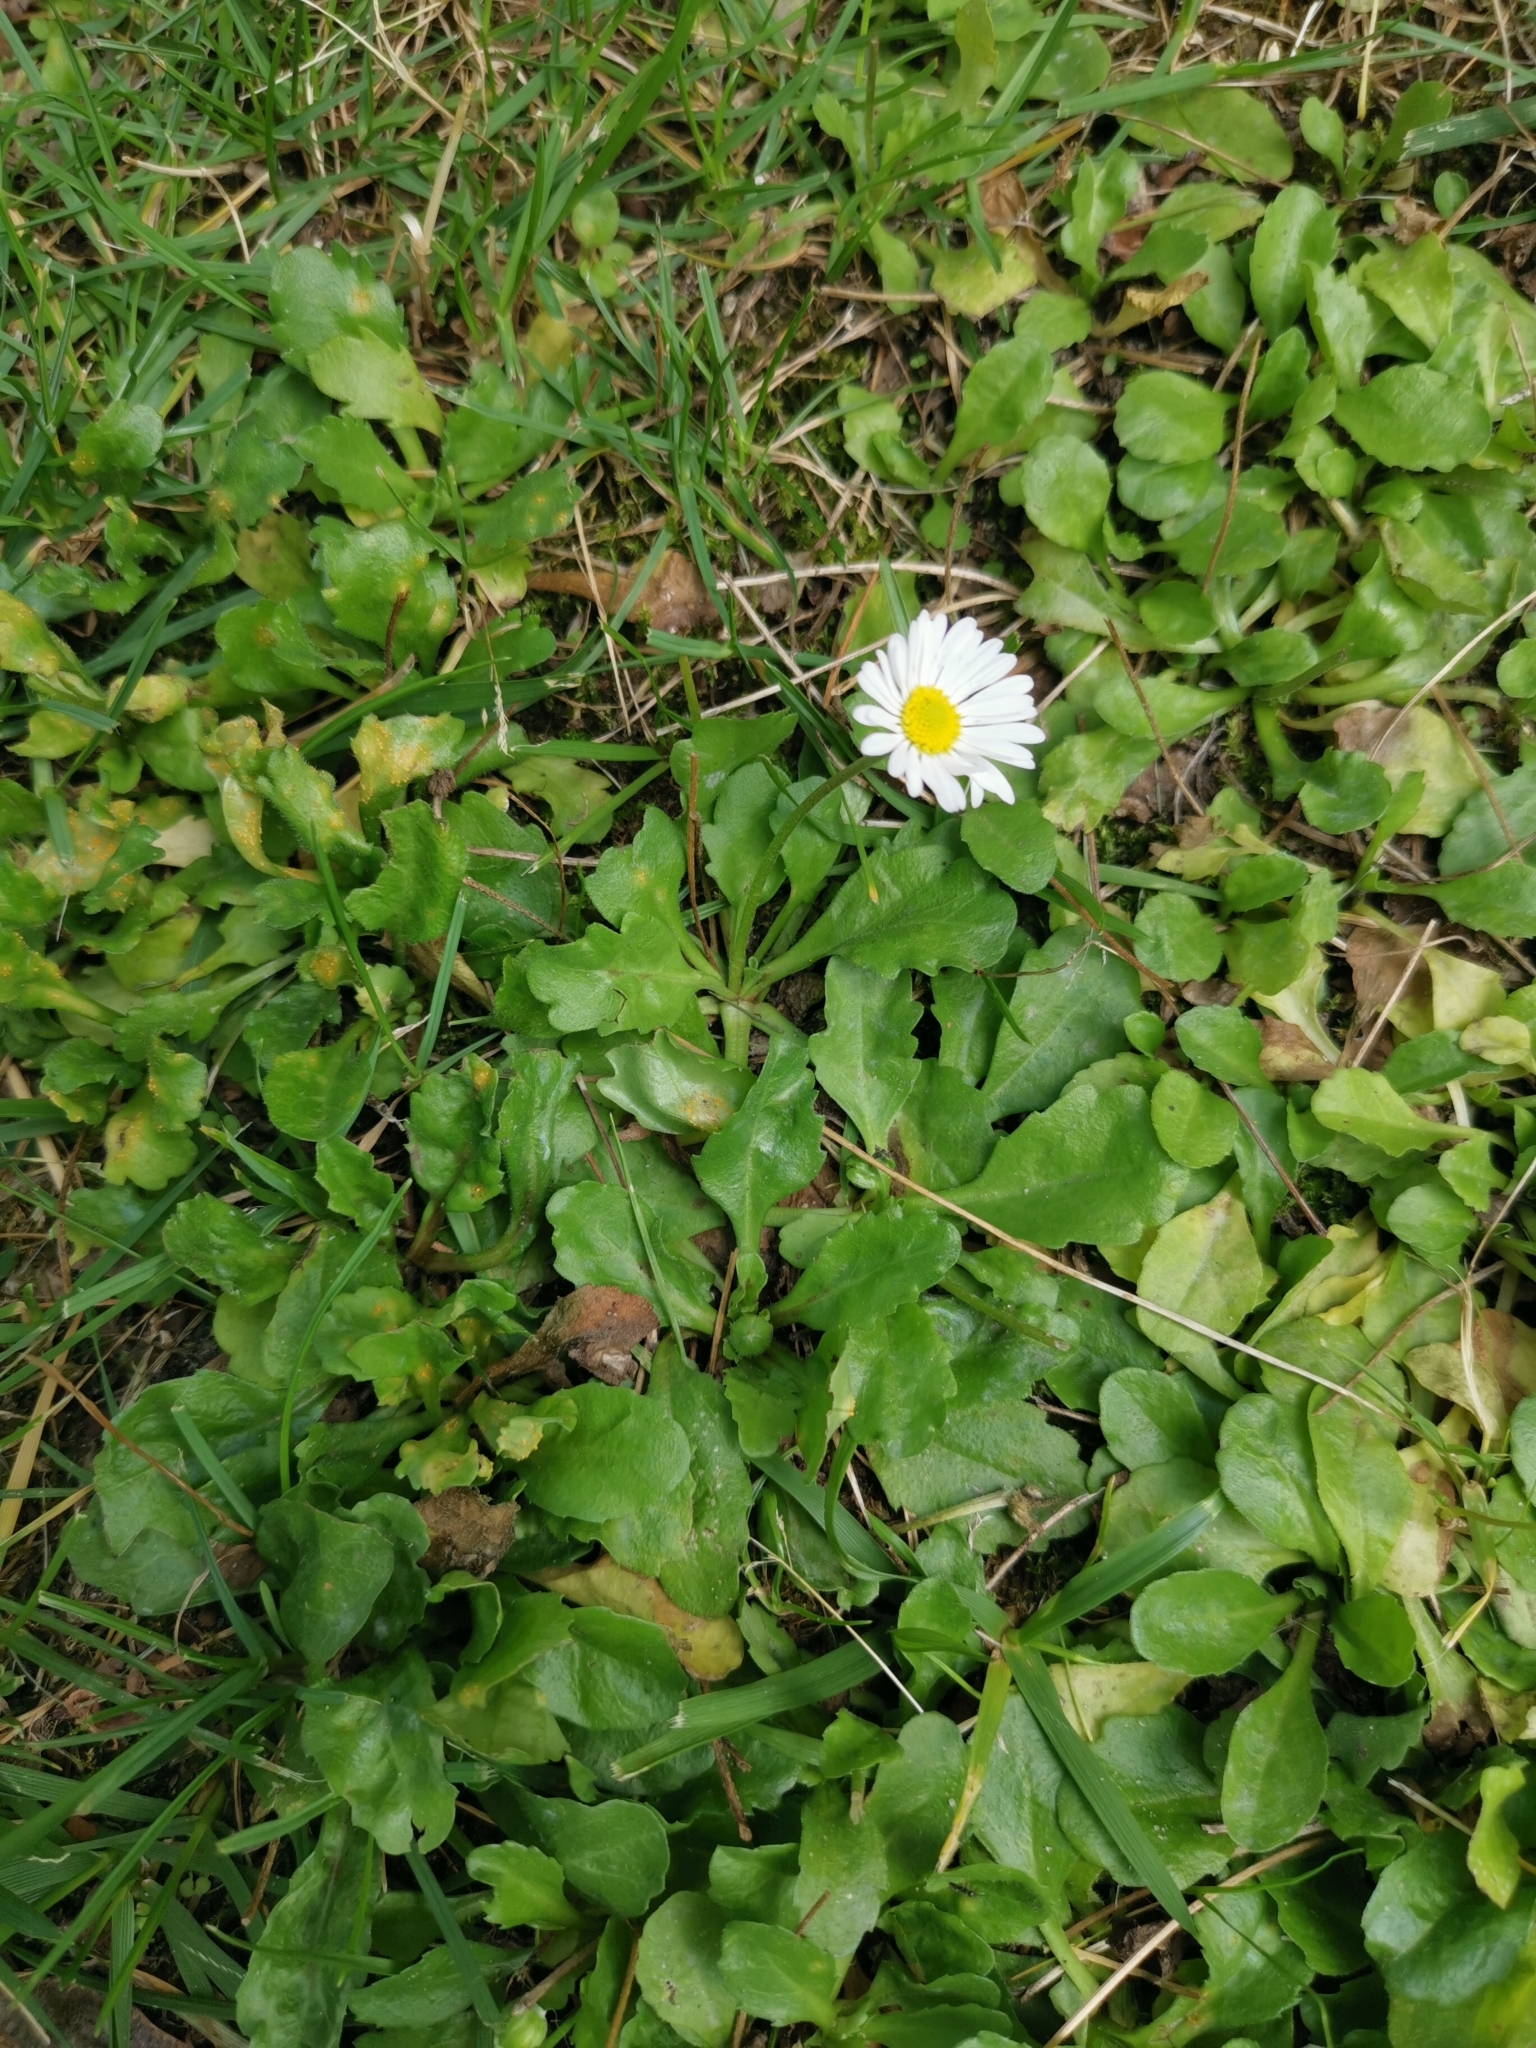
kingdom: Plantae
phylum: Tracheophyta
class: Magnoliopsida
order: Asterales
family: Asteraceae
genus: Bellis
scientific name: Bellis perennis
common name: Lawndaisy
